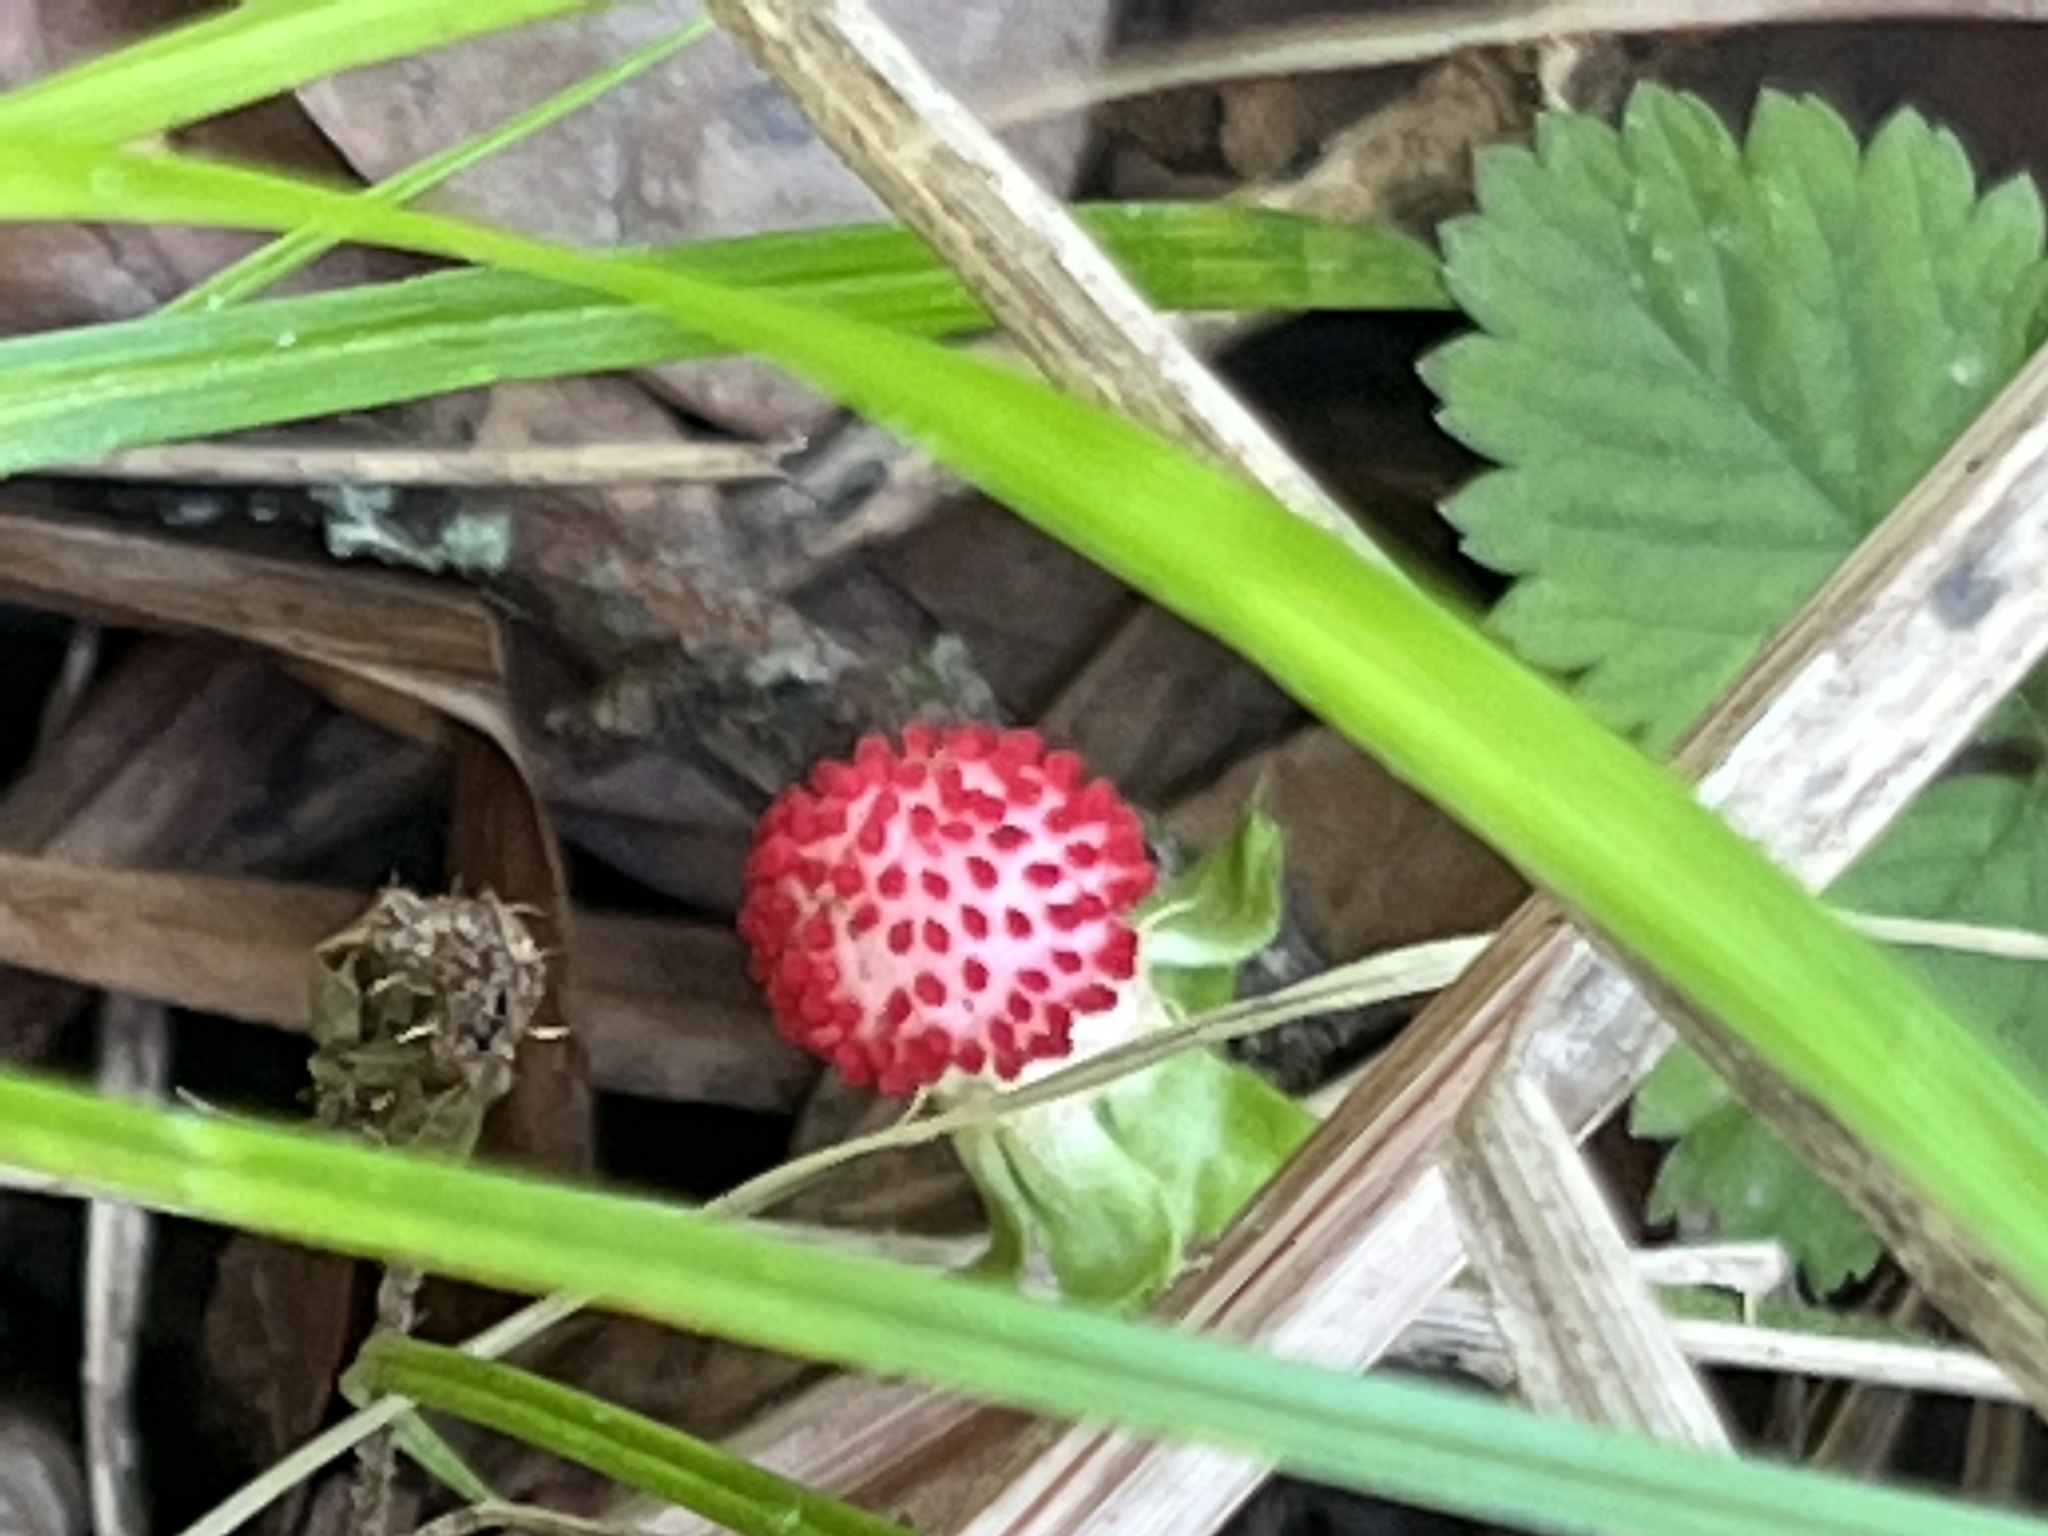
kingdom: Plantae
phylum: Tracheophyta
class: Magnoliopsida
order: Rosales
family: Rosaceae
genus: Potentilla
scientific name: Potentilla indica
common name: Yellow-flowered strawberry
